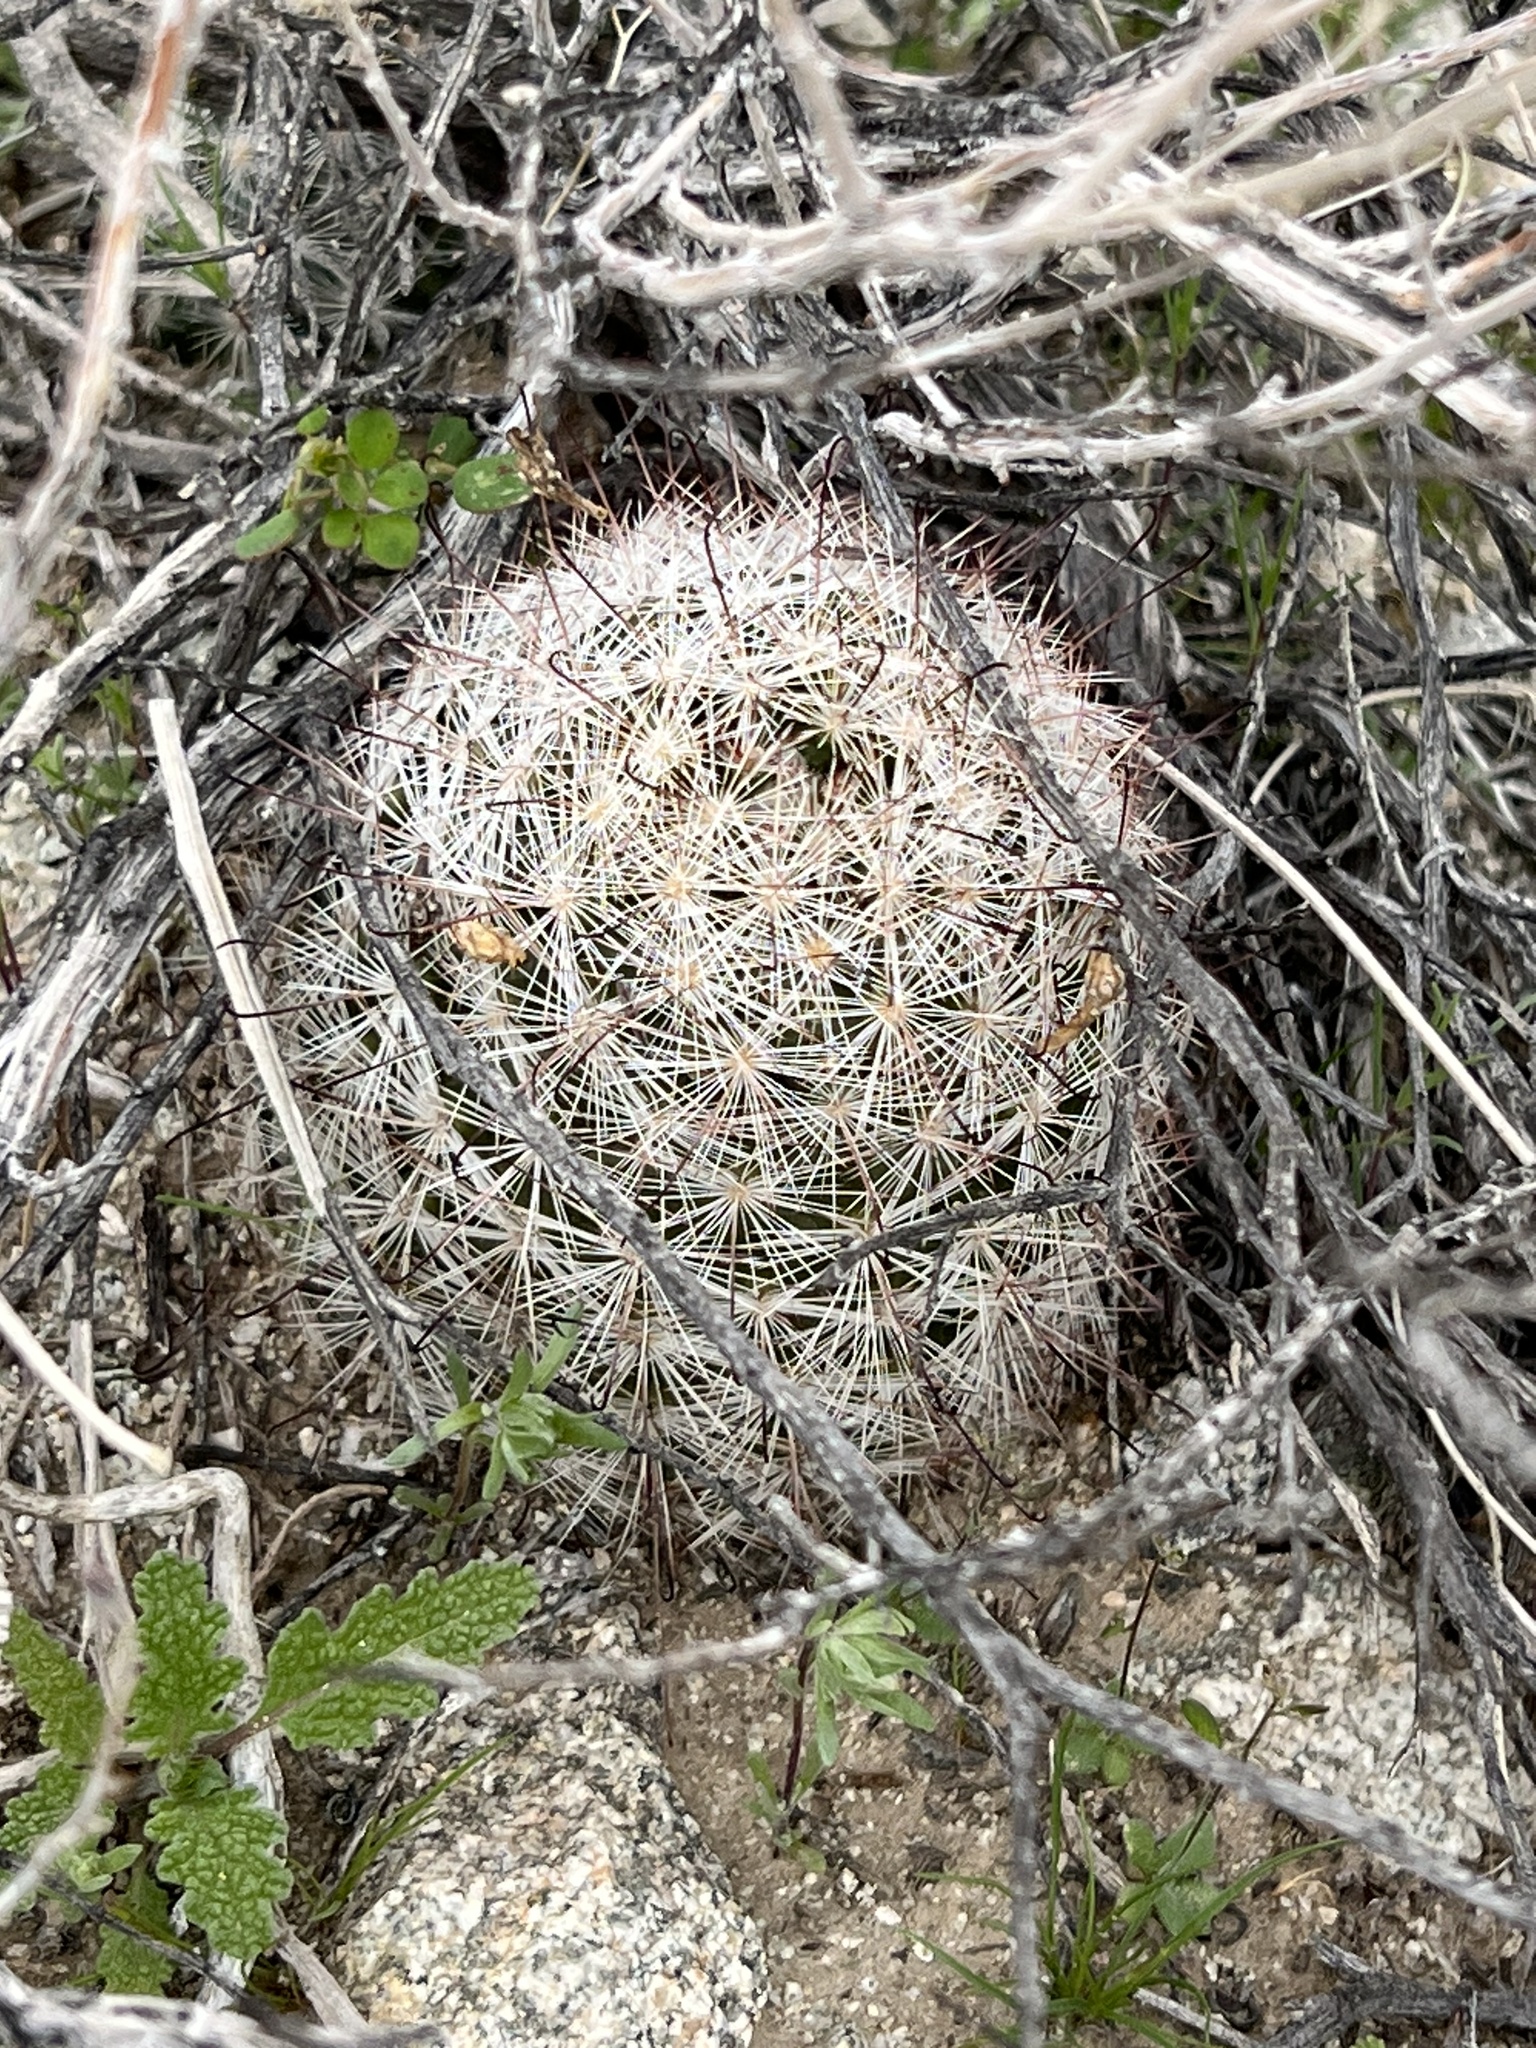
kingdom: Plantae
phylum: Tracheophyta
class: Magnoliopsida
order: Caryophyllales
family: Cactaceae
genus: Cochemiea
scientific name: Cochemiea tetrancistra
